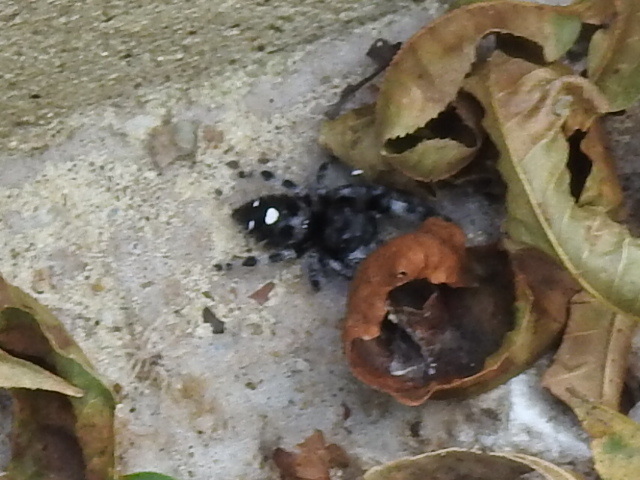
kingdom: Animalia
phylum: Arthropoda
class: Arachnida
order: Araneae
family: Salticidae
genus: Phidippus
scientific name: Phidippus audax
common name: Bold jumper
